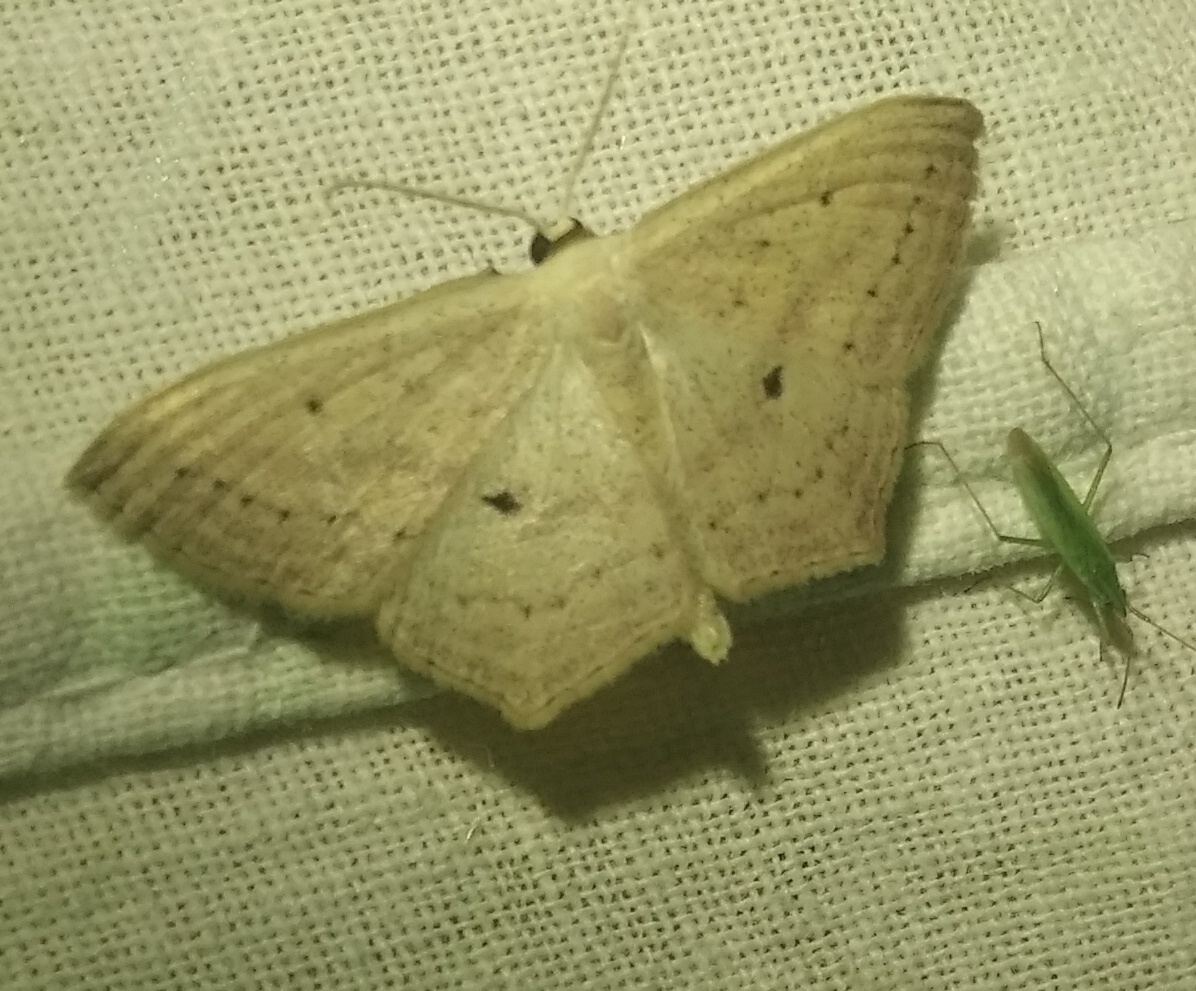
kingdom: Animalia
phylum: Arthropoda
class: Insecta
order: Lepidoptera
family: Geometridae
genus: Scopula
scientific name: Scopula flaccidaria
